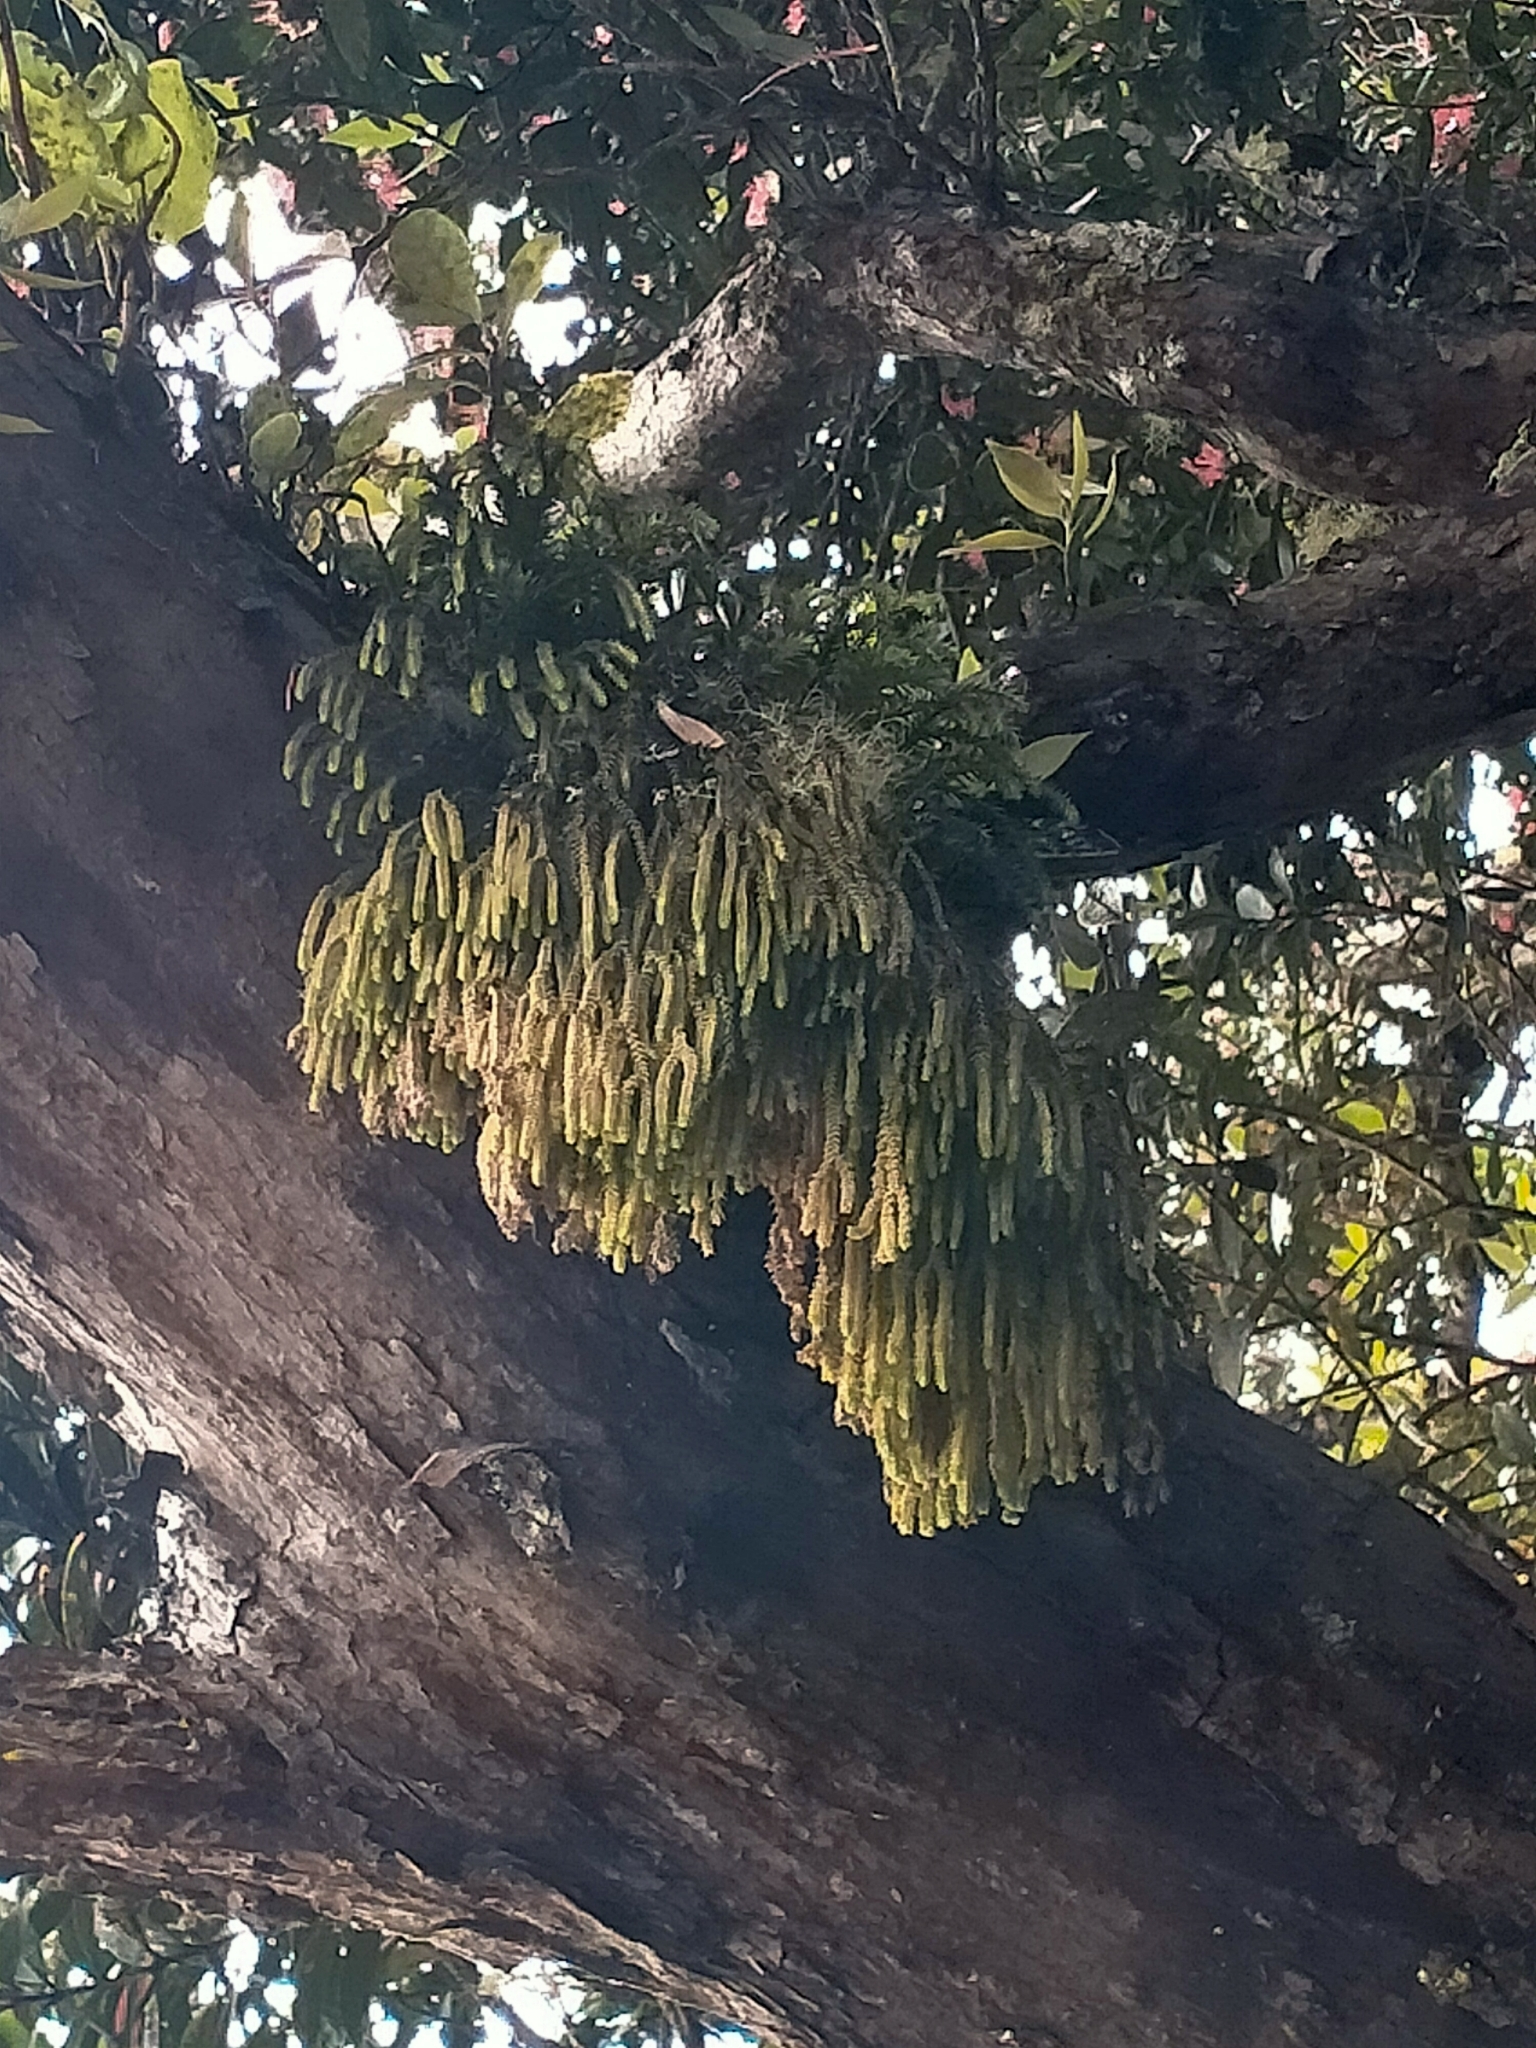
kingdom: Plantae
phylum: Tracheophyta
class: Lycopodiopsida
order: Lycopodiales
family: Lycopodiaceae
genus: Phlegmariurus
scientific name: Phlegmariurus varius
